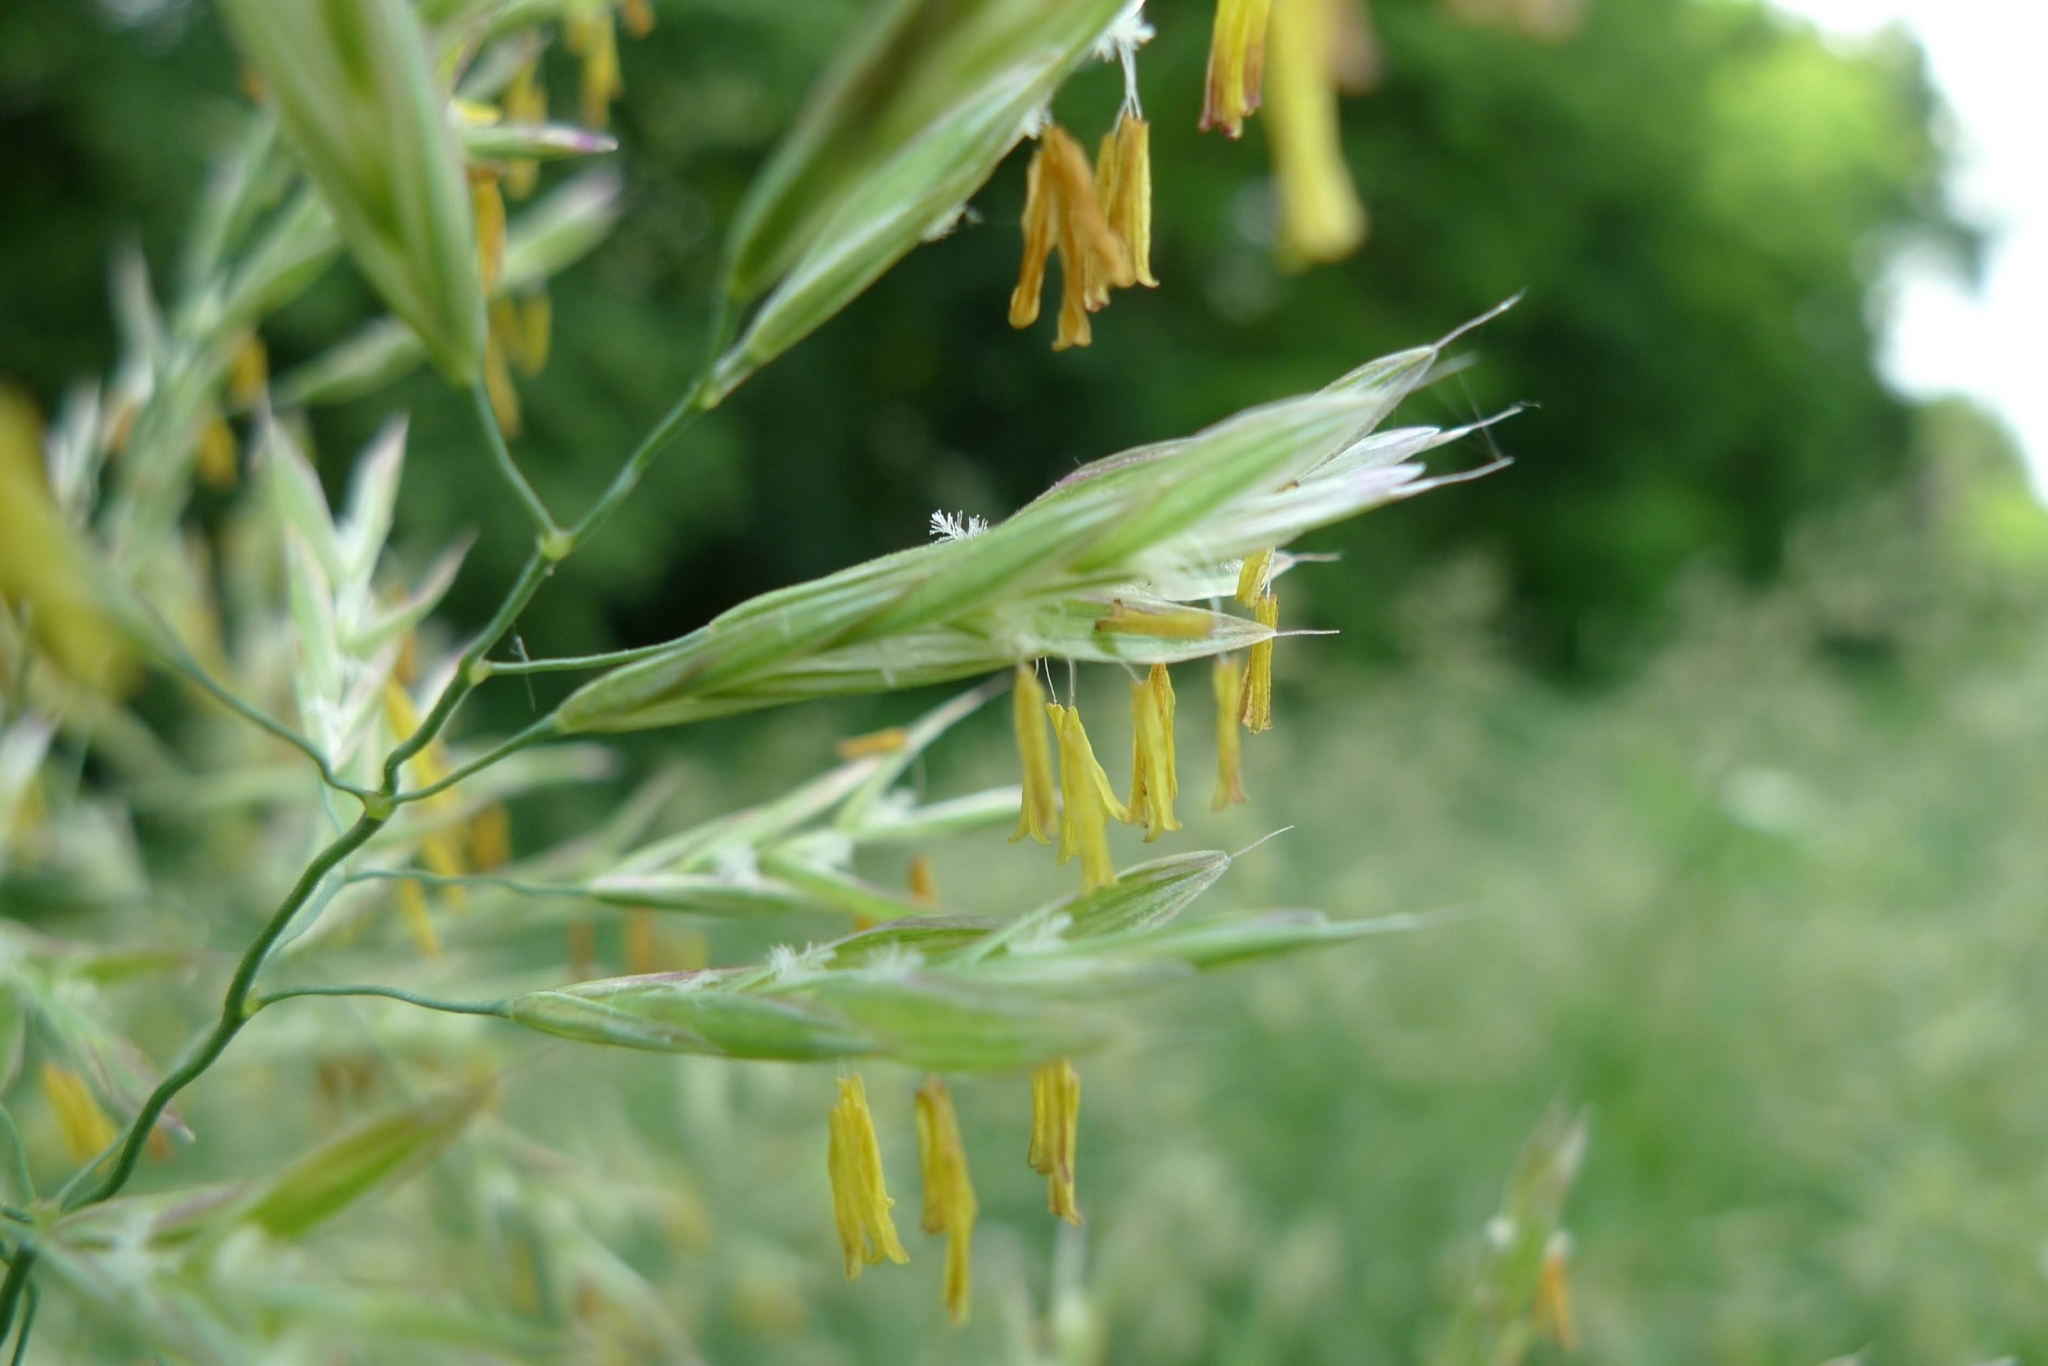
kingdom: Plantae
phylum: Tracheophyta
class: Liliopsida
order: Poales
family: Poaceae
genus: Bromus
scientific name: Bromus inermis
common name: Smooth brome
